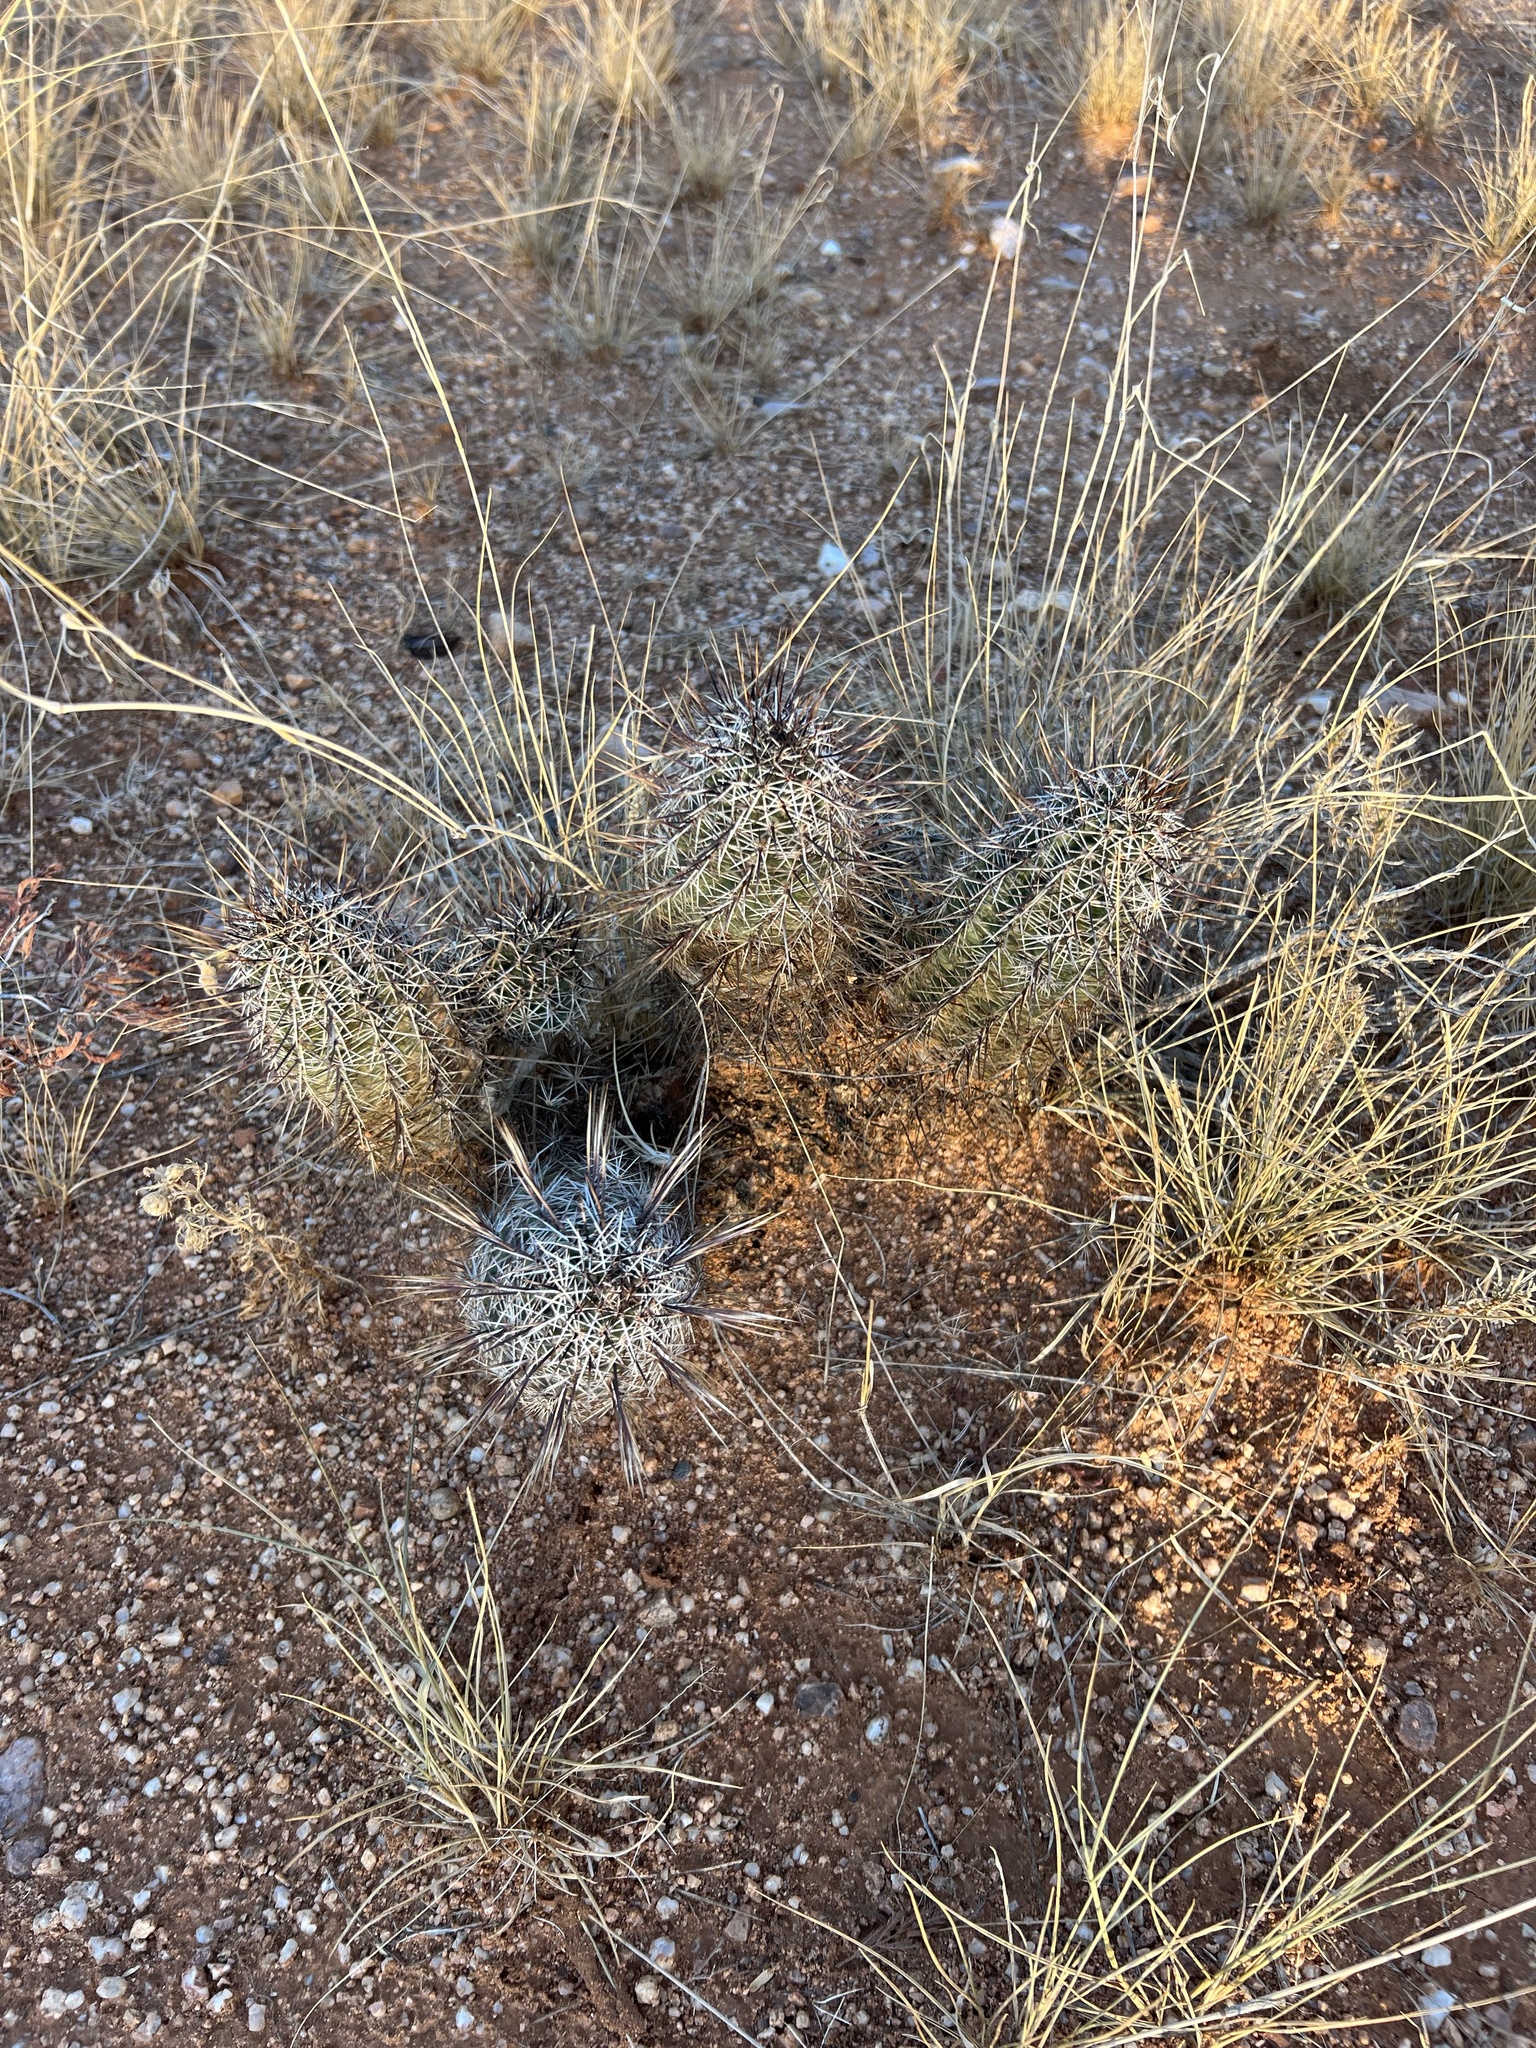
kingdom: Plantae
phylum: Tracheophyta
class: Magnoliopsida
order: Caryophyllales
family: Cactaceae
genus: Echinocereus
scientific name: Echinocereus fasciculatus
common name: Bundle hedgehog
